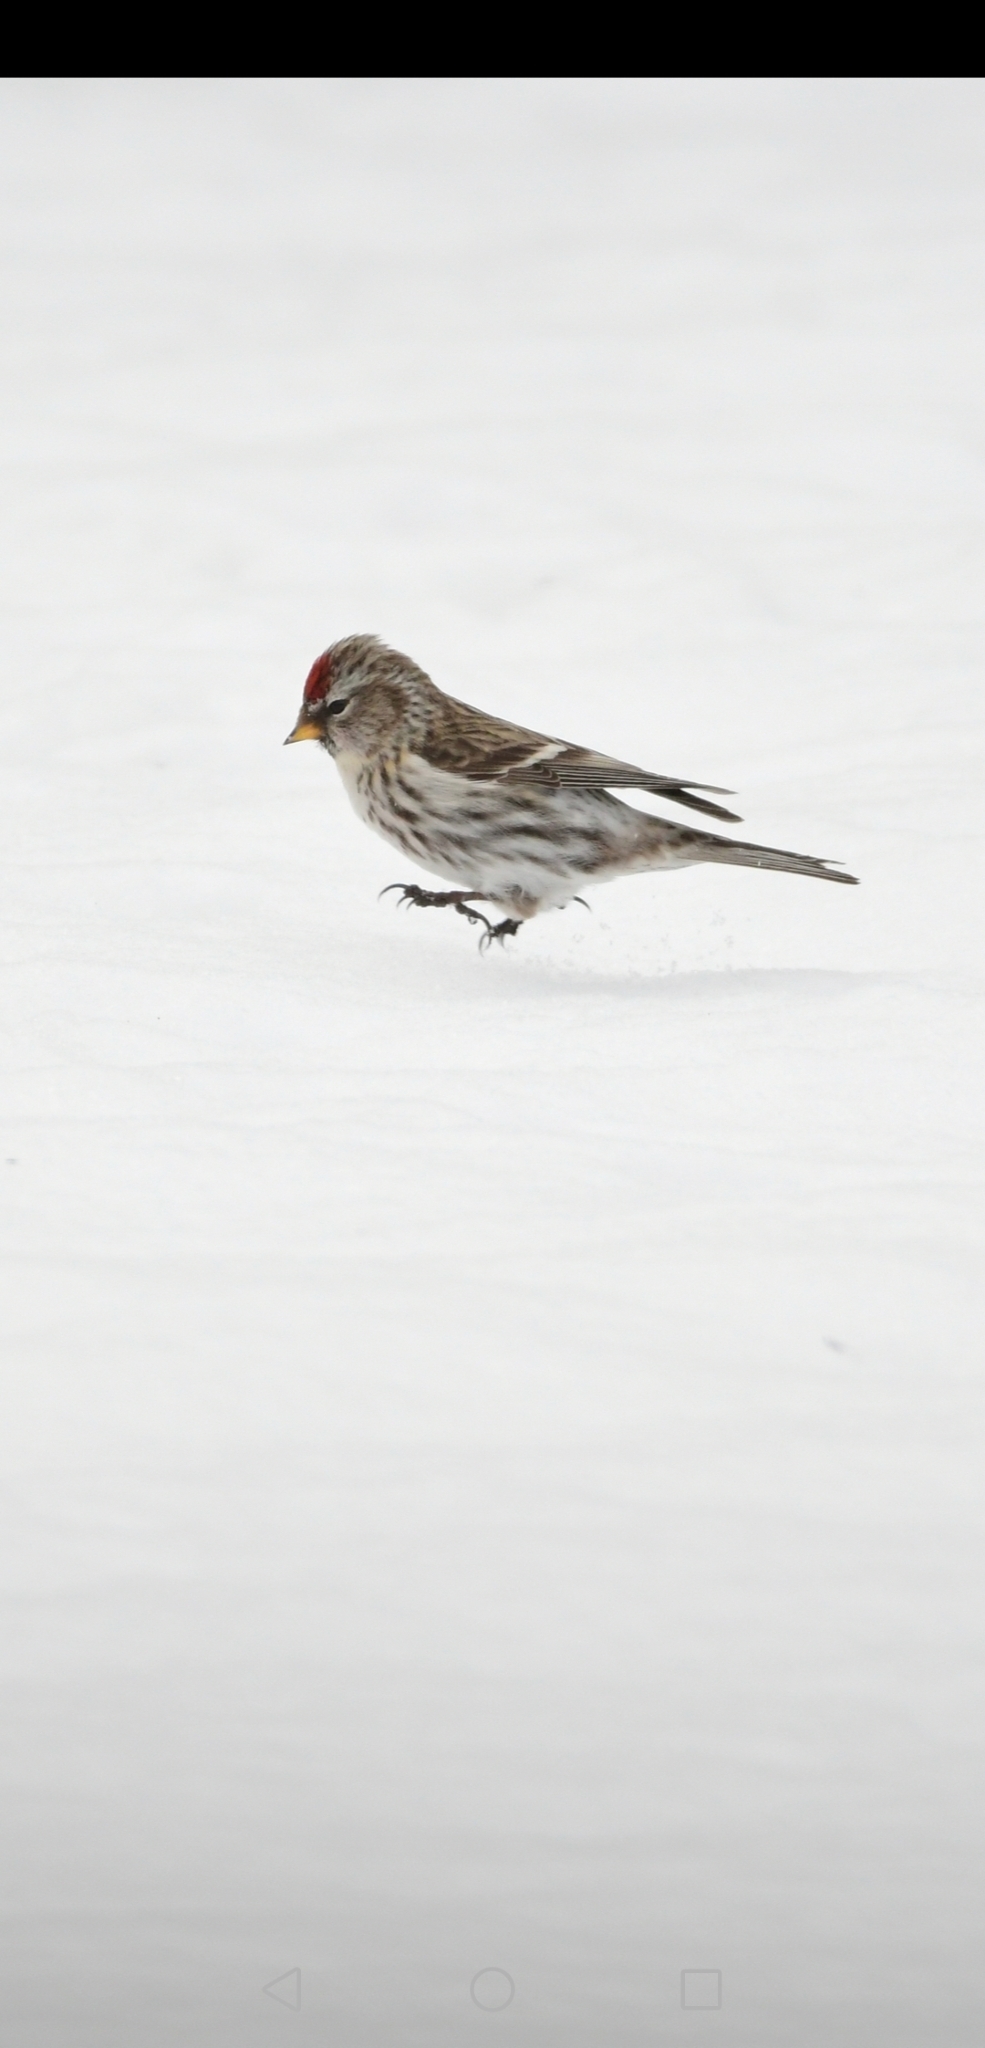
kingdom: Animalia
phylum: Chordata
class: Aves
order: Passeriformes
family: Fringillidae
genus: Acanthis
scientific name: Acanthis flammea
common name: Common redpoll
